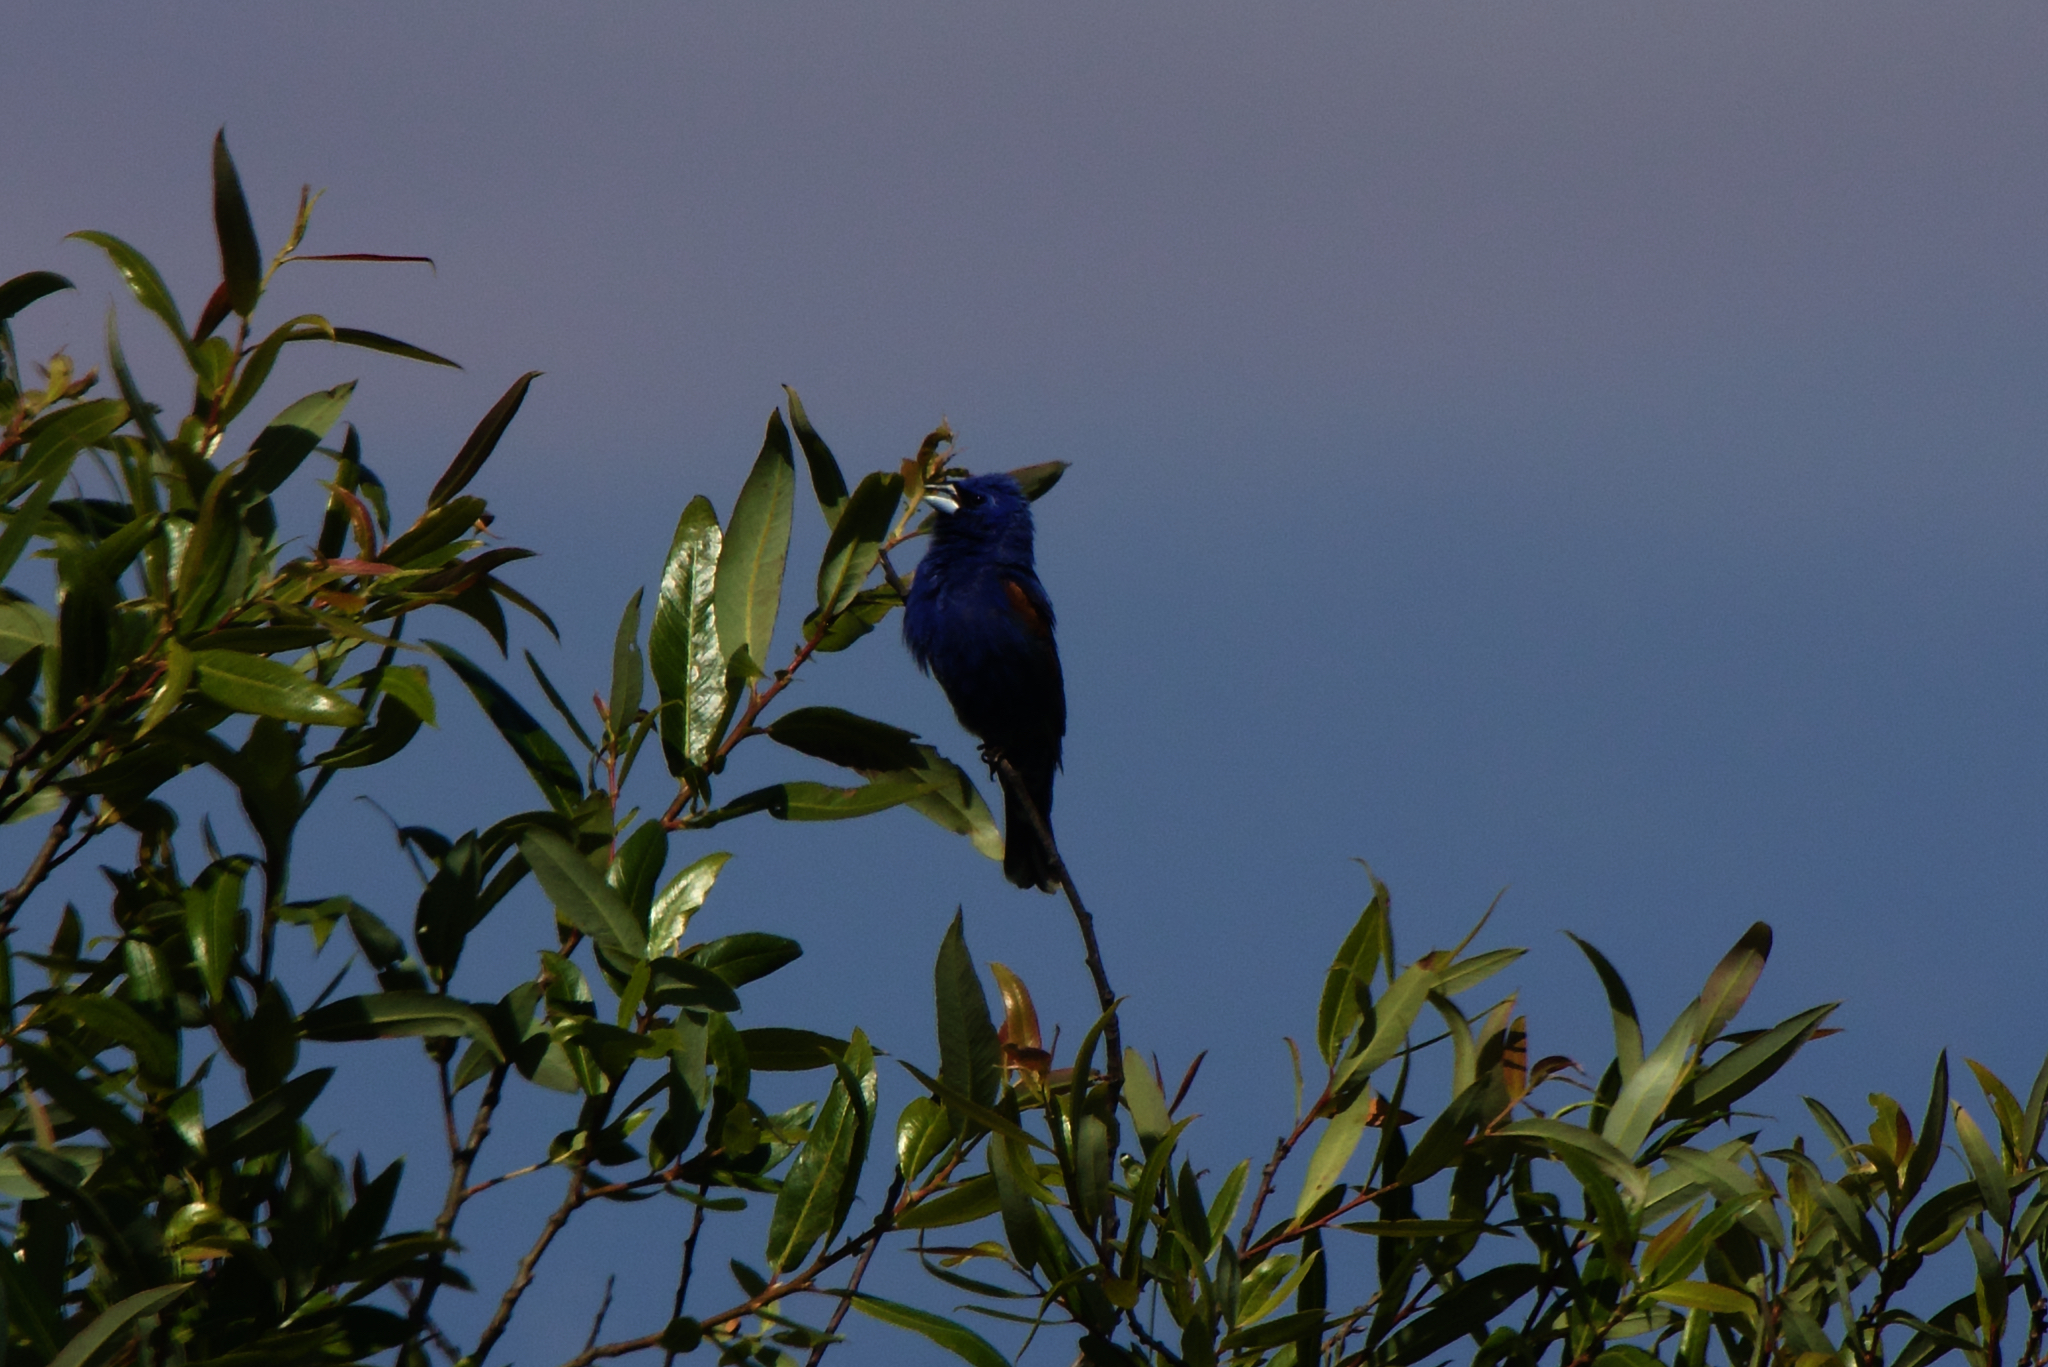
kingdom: Animalia
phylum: Chordata
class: Aves
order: Passeriformes
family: Cardinalidae
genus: Passerina
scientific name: Passerina caerulea
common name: Blue grosbeak
